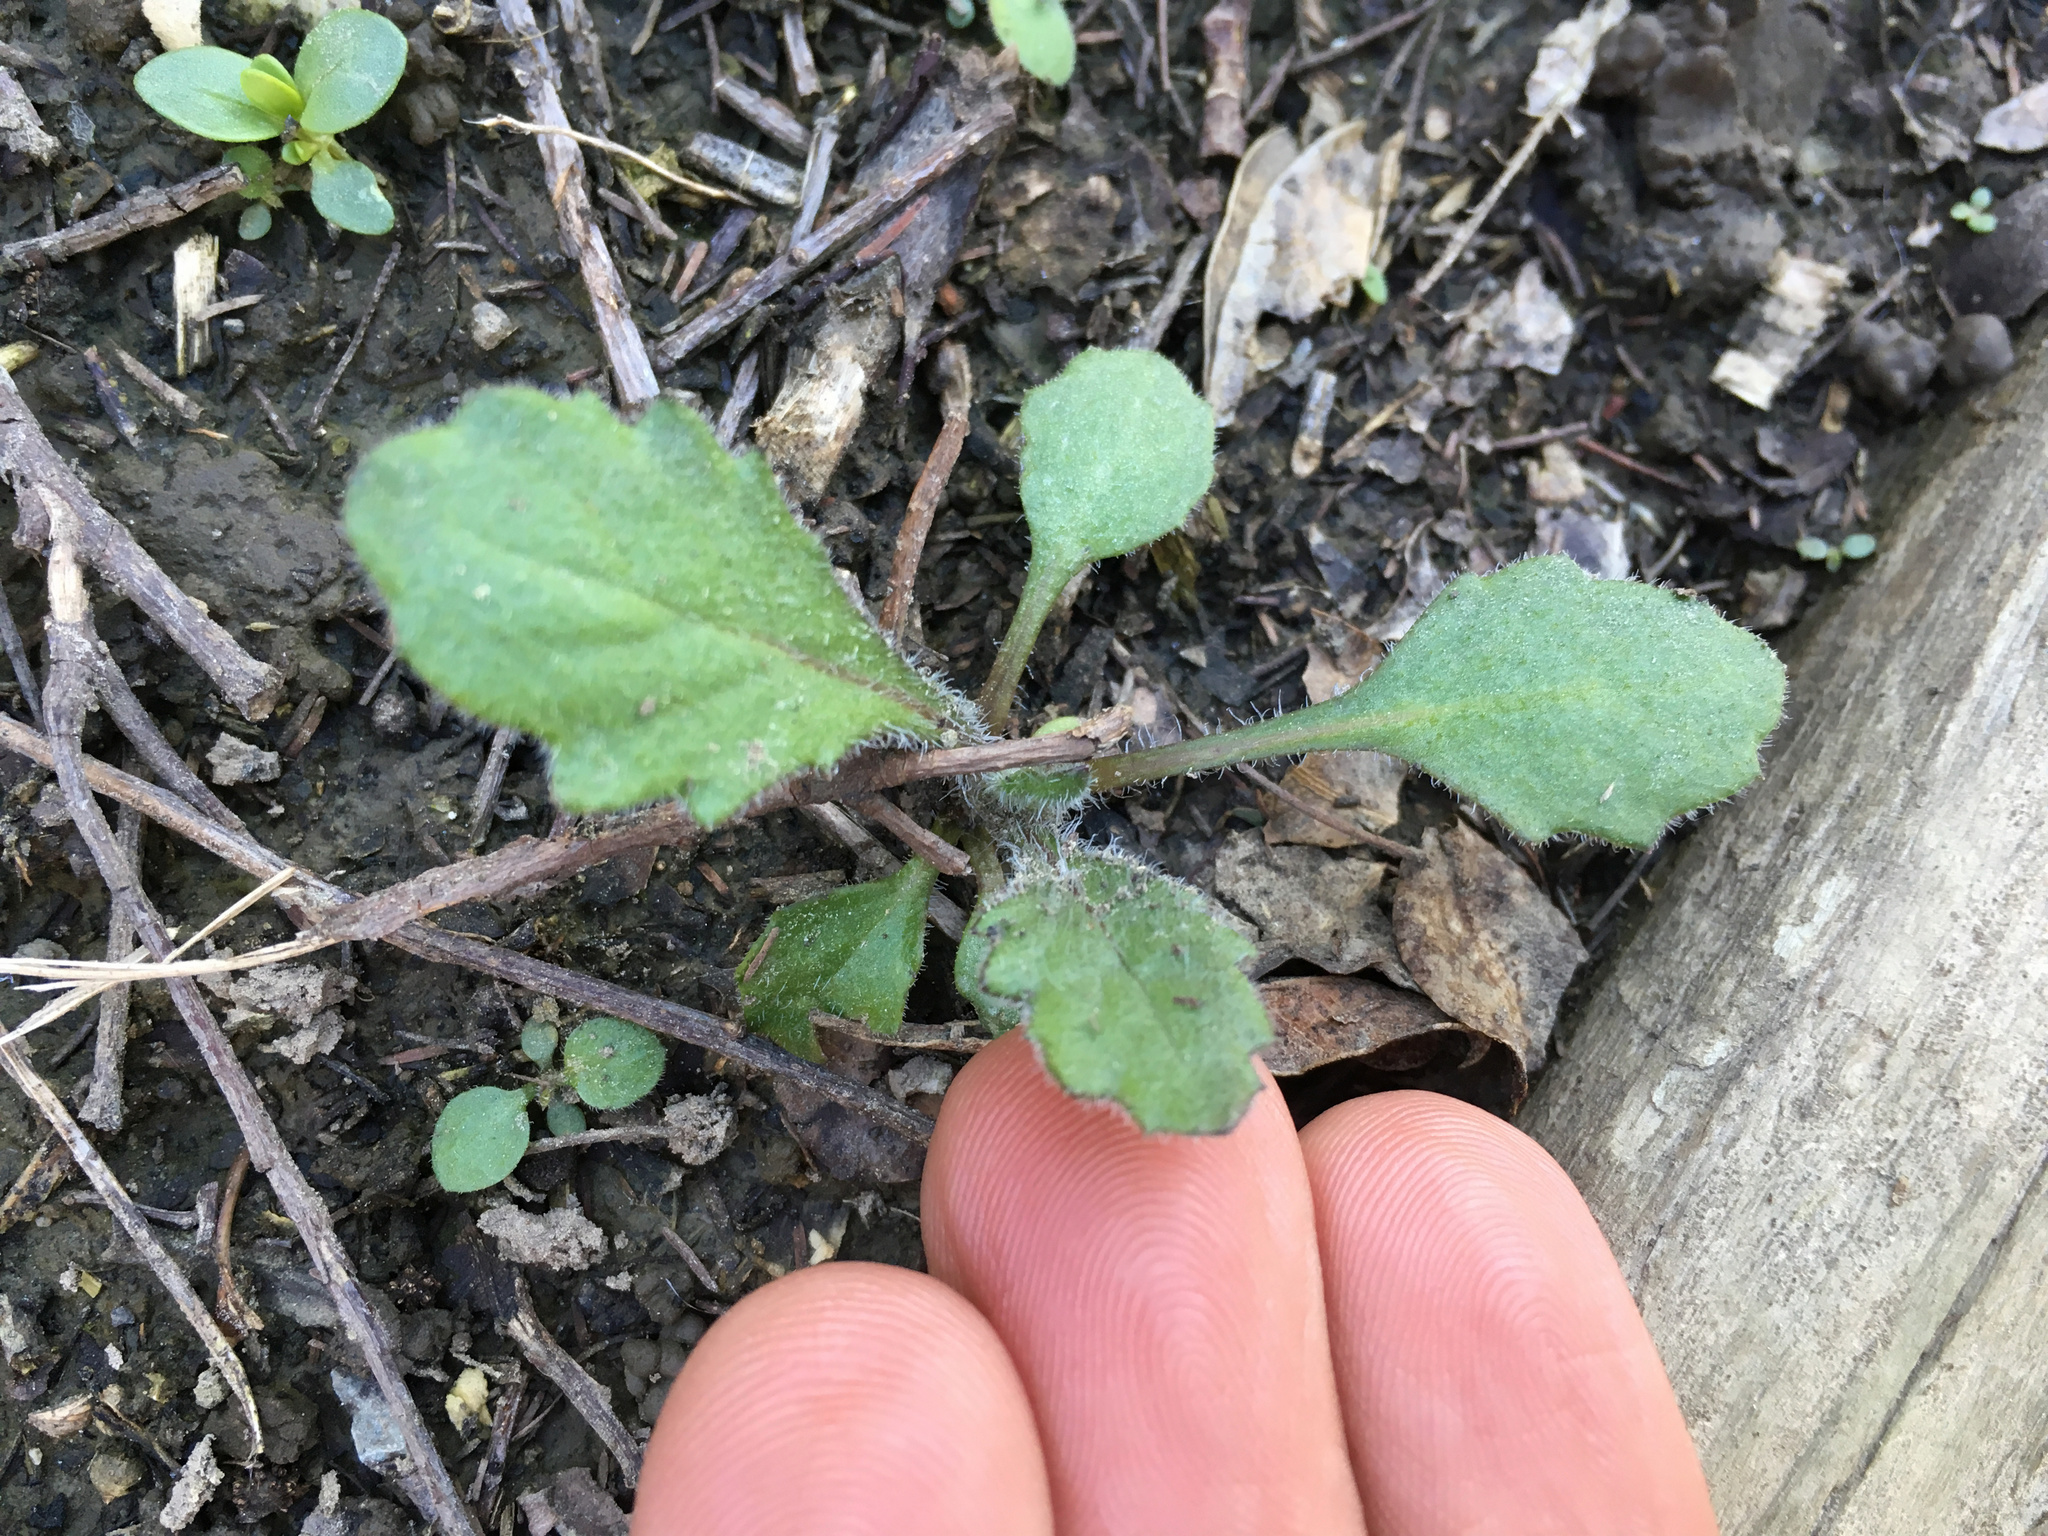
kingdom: Plantae
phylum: Tracheophyta
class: Magnoliopsida
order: Asterales
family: Asteraceae
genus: Senecio
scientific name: Senecio glomeratus
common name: Cutleaf burnweed
